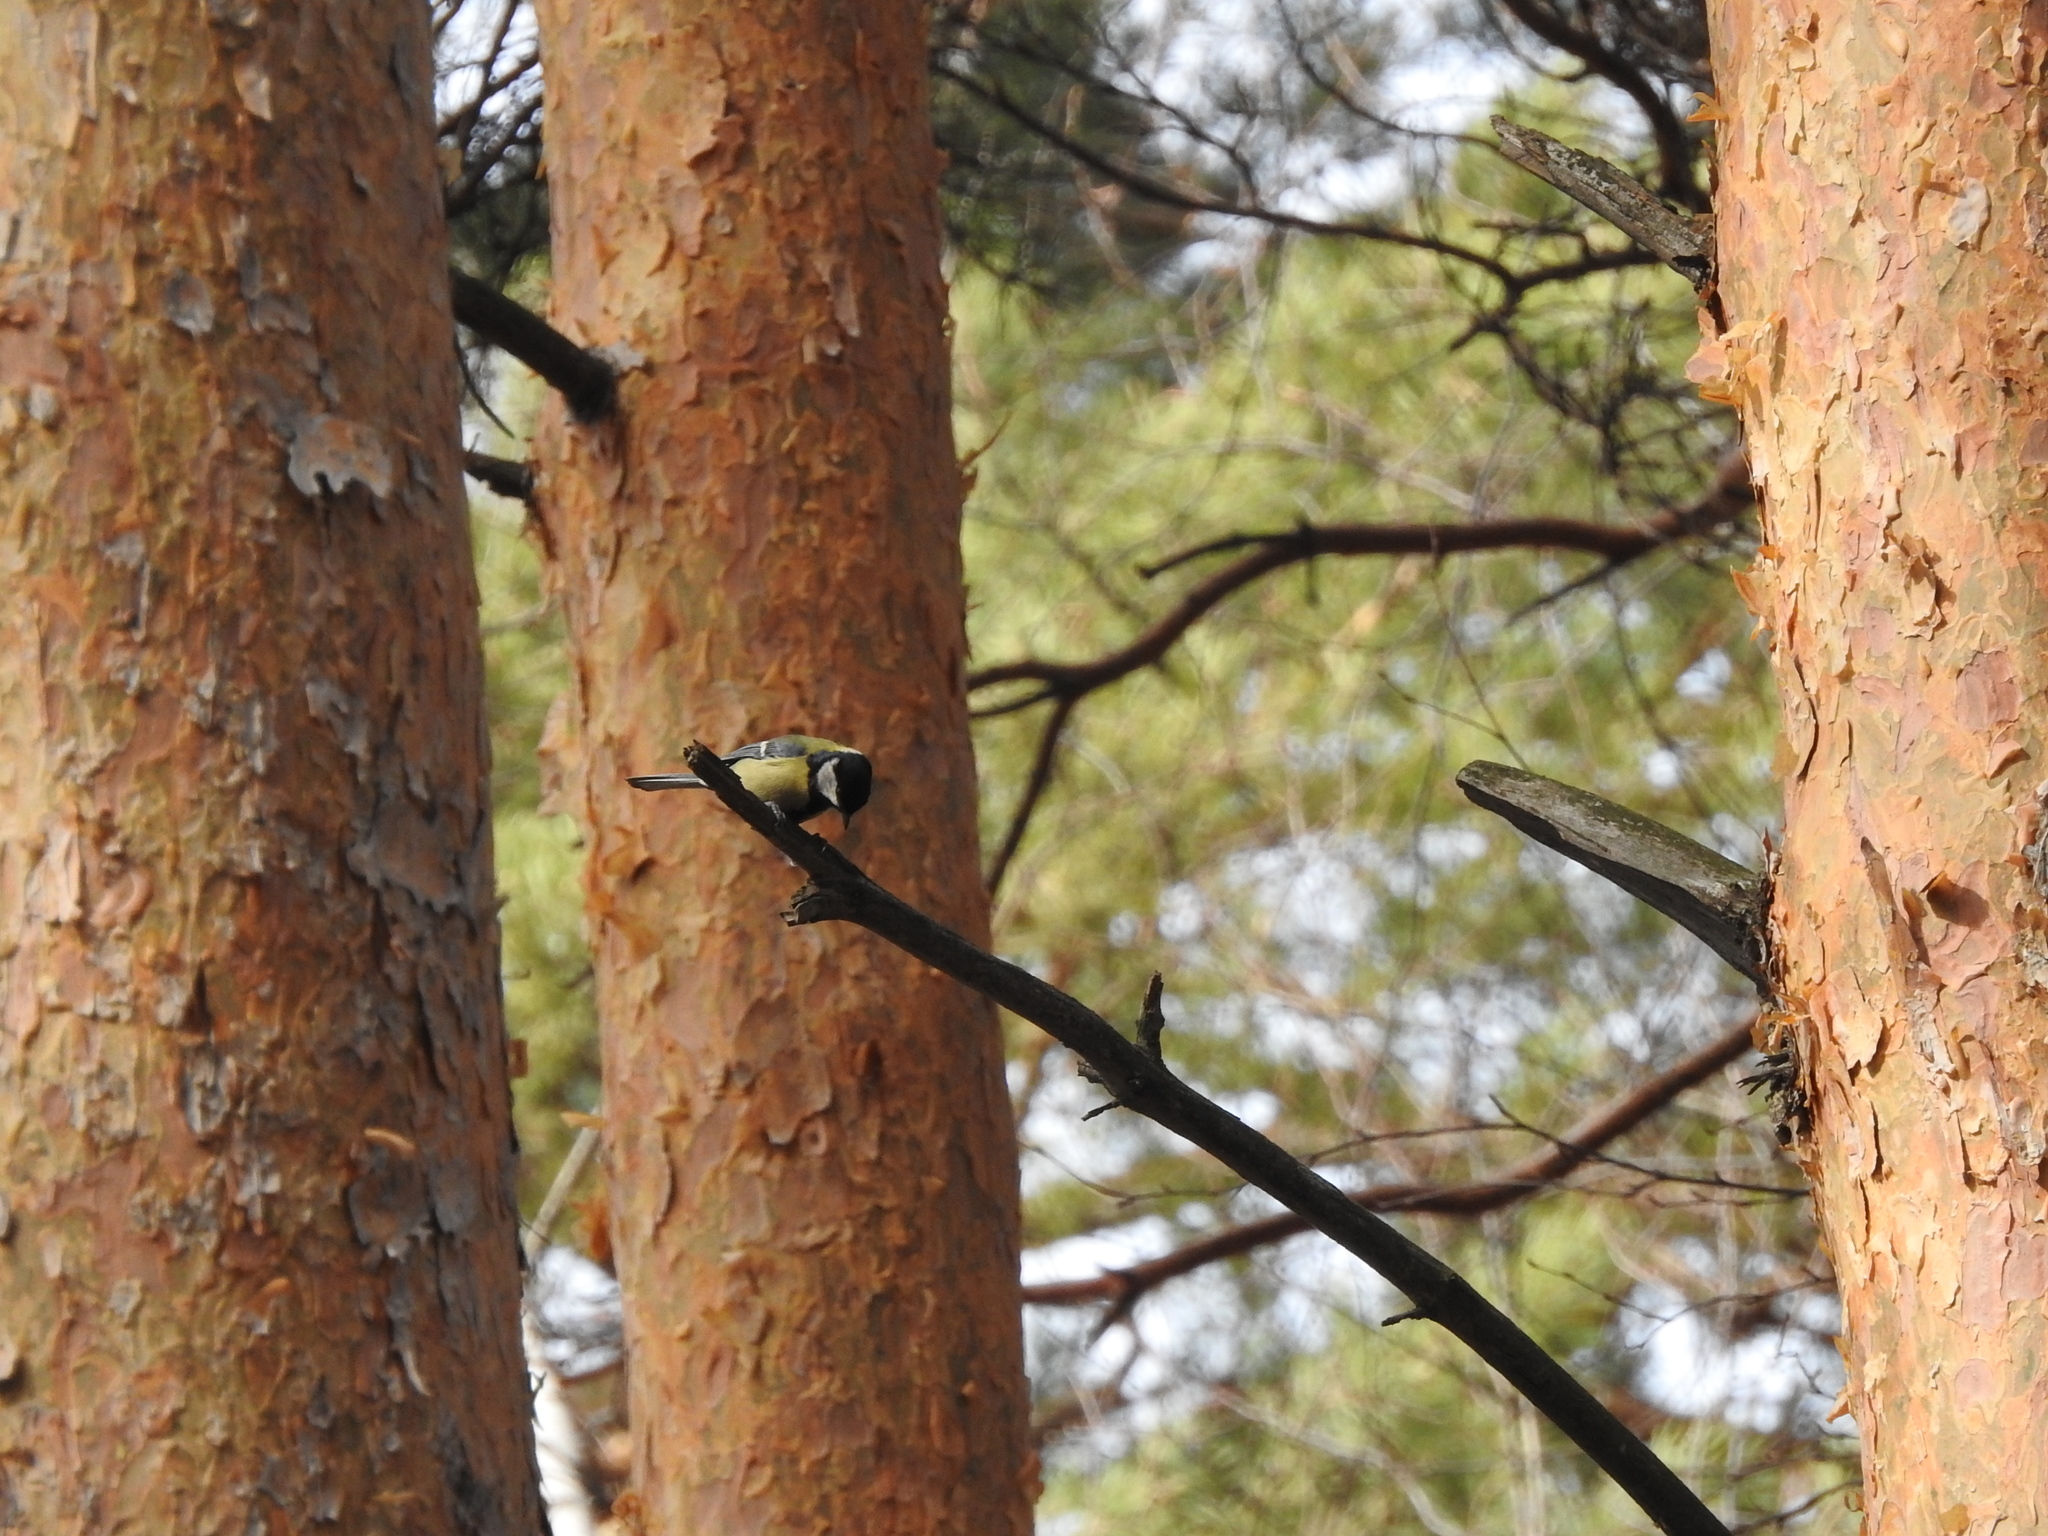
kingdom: Animalia
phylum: Chordata
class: Aves
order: Passeriformes
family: Paridae
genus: Parus
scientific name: Parus major
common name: Great tit
